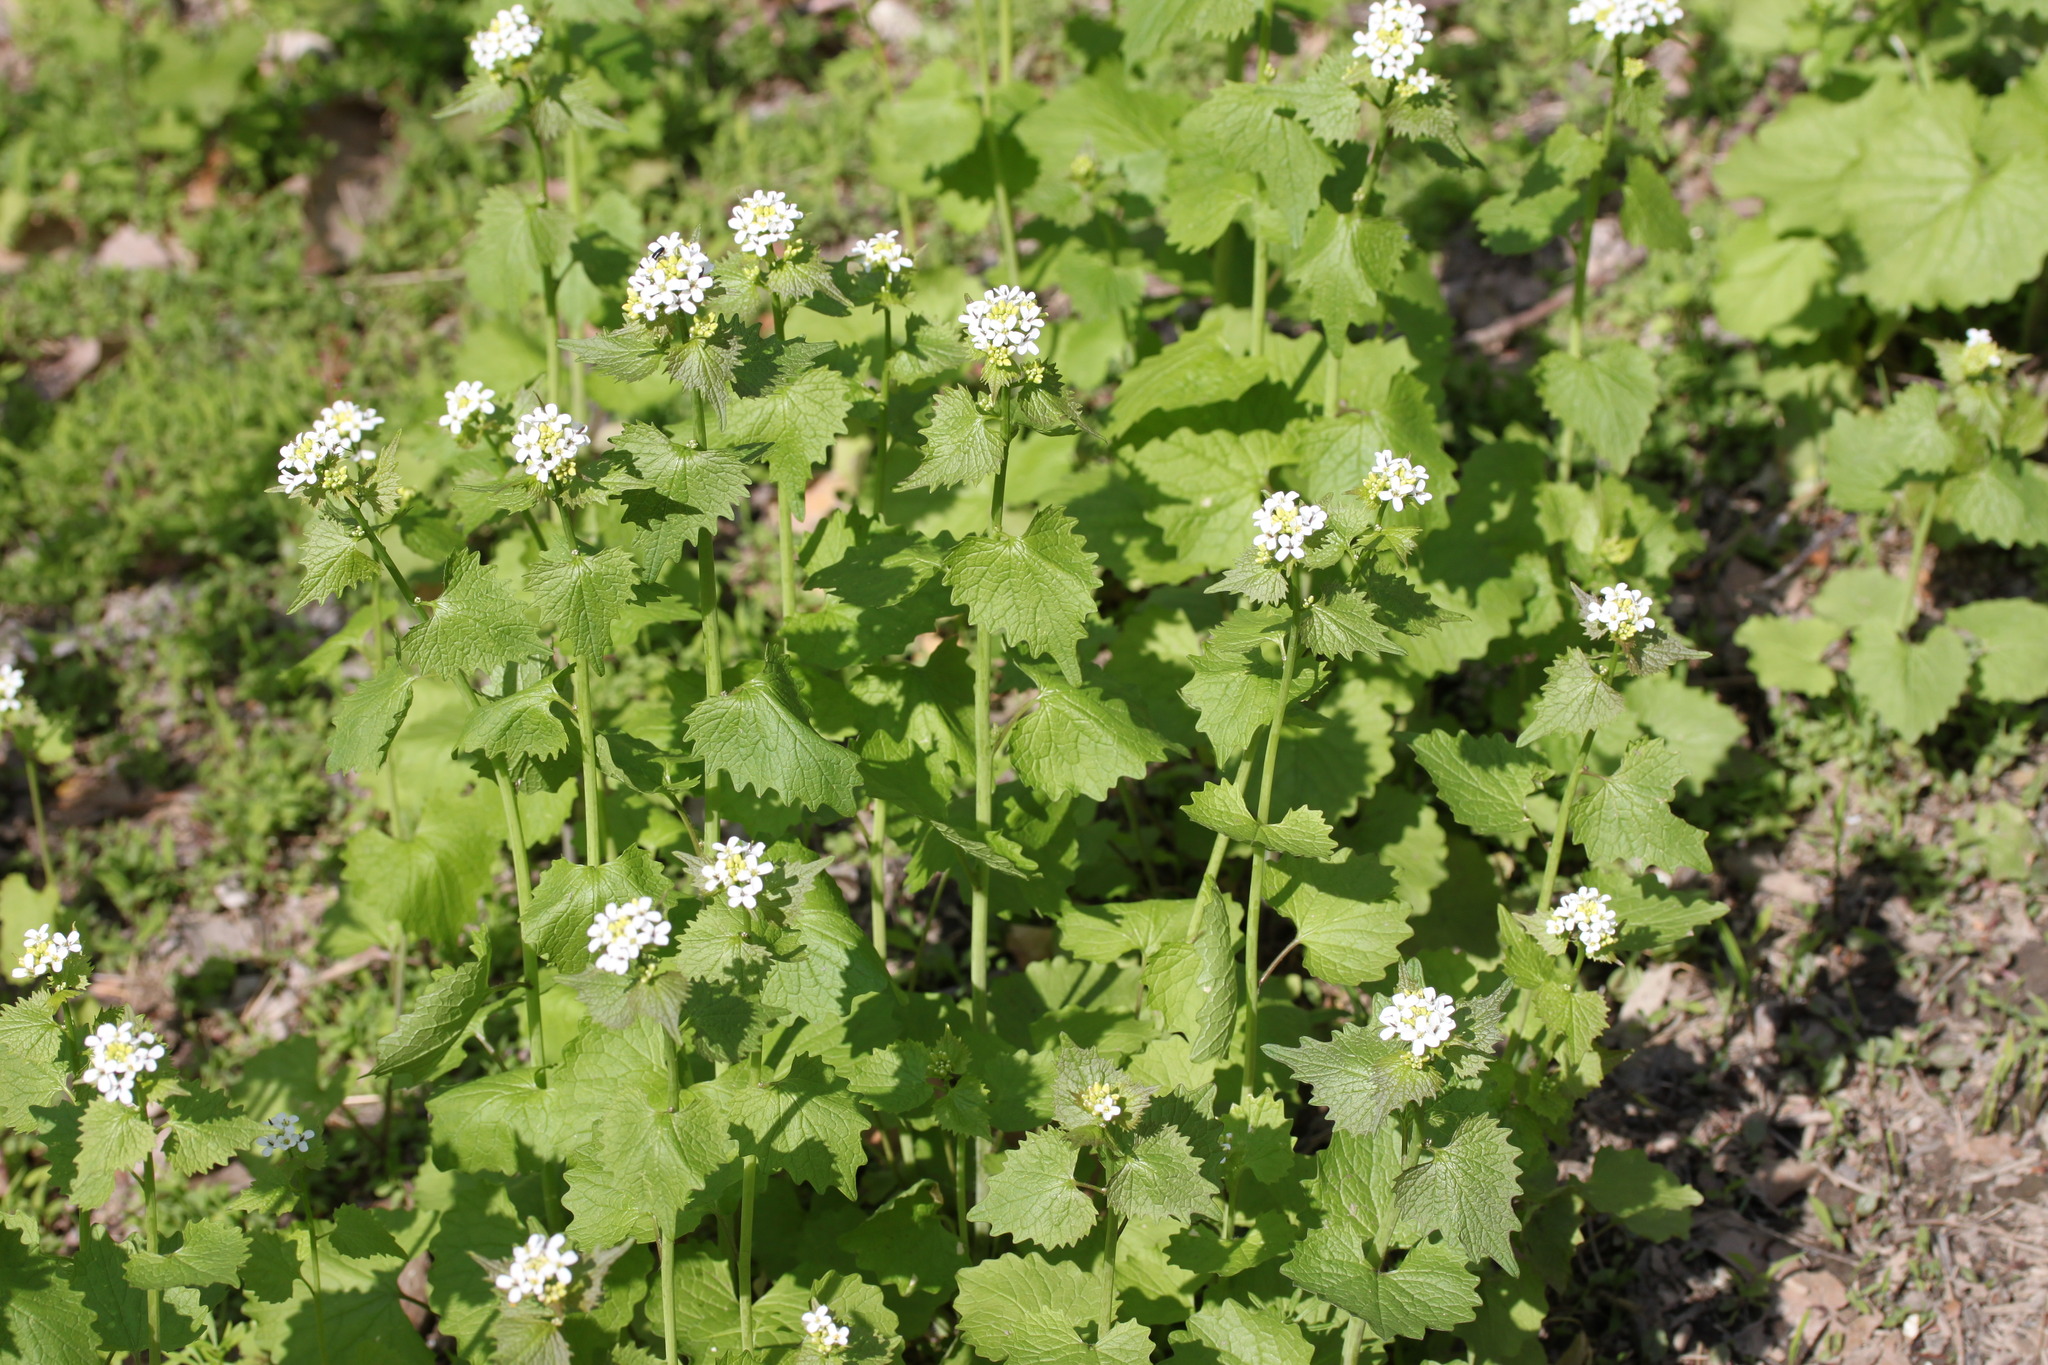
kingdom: Plantae
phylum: Tracheophyta
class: Magnoliopsida
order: Brassicales
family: Brassicaceae
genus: Alliaria
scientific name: Alliaria petiolata
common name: Garlic mustard
